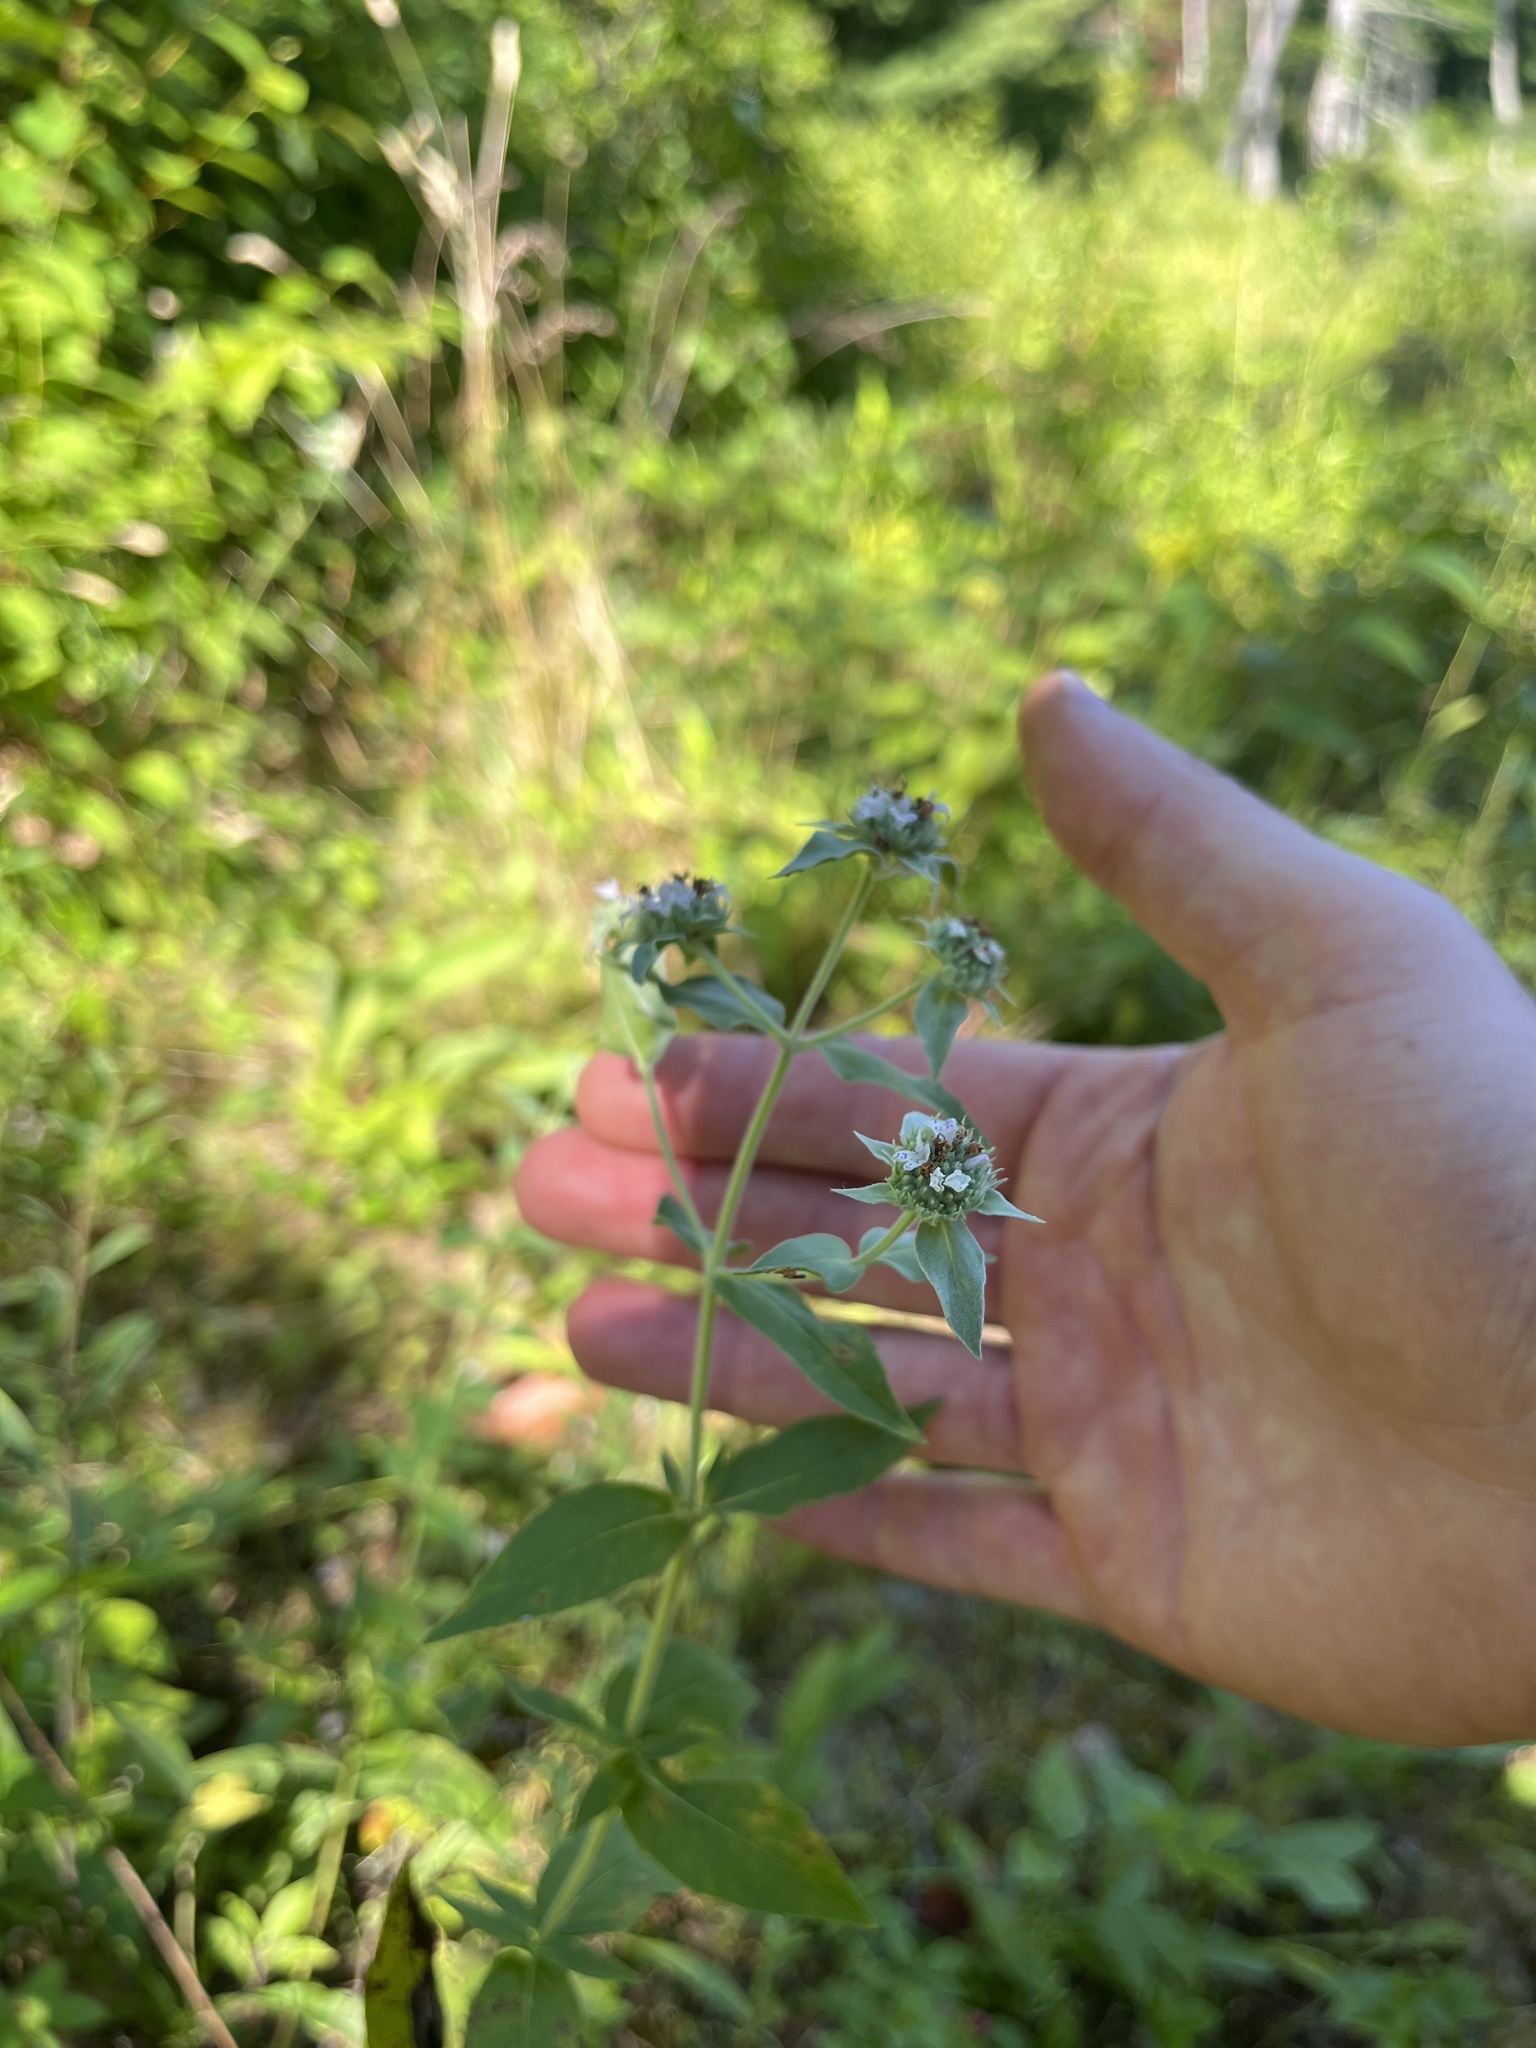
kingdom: Plantae
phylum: Tracheophyta
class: Magnoliopsida
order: Lamiales
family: Lamiaceae
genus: Pycnanthemum
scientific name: Pycnanthemum muticum
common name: Blunt mountain-mint
